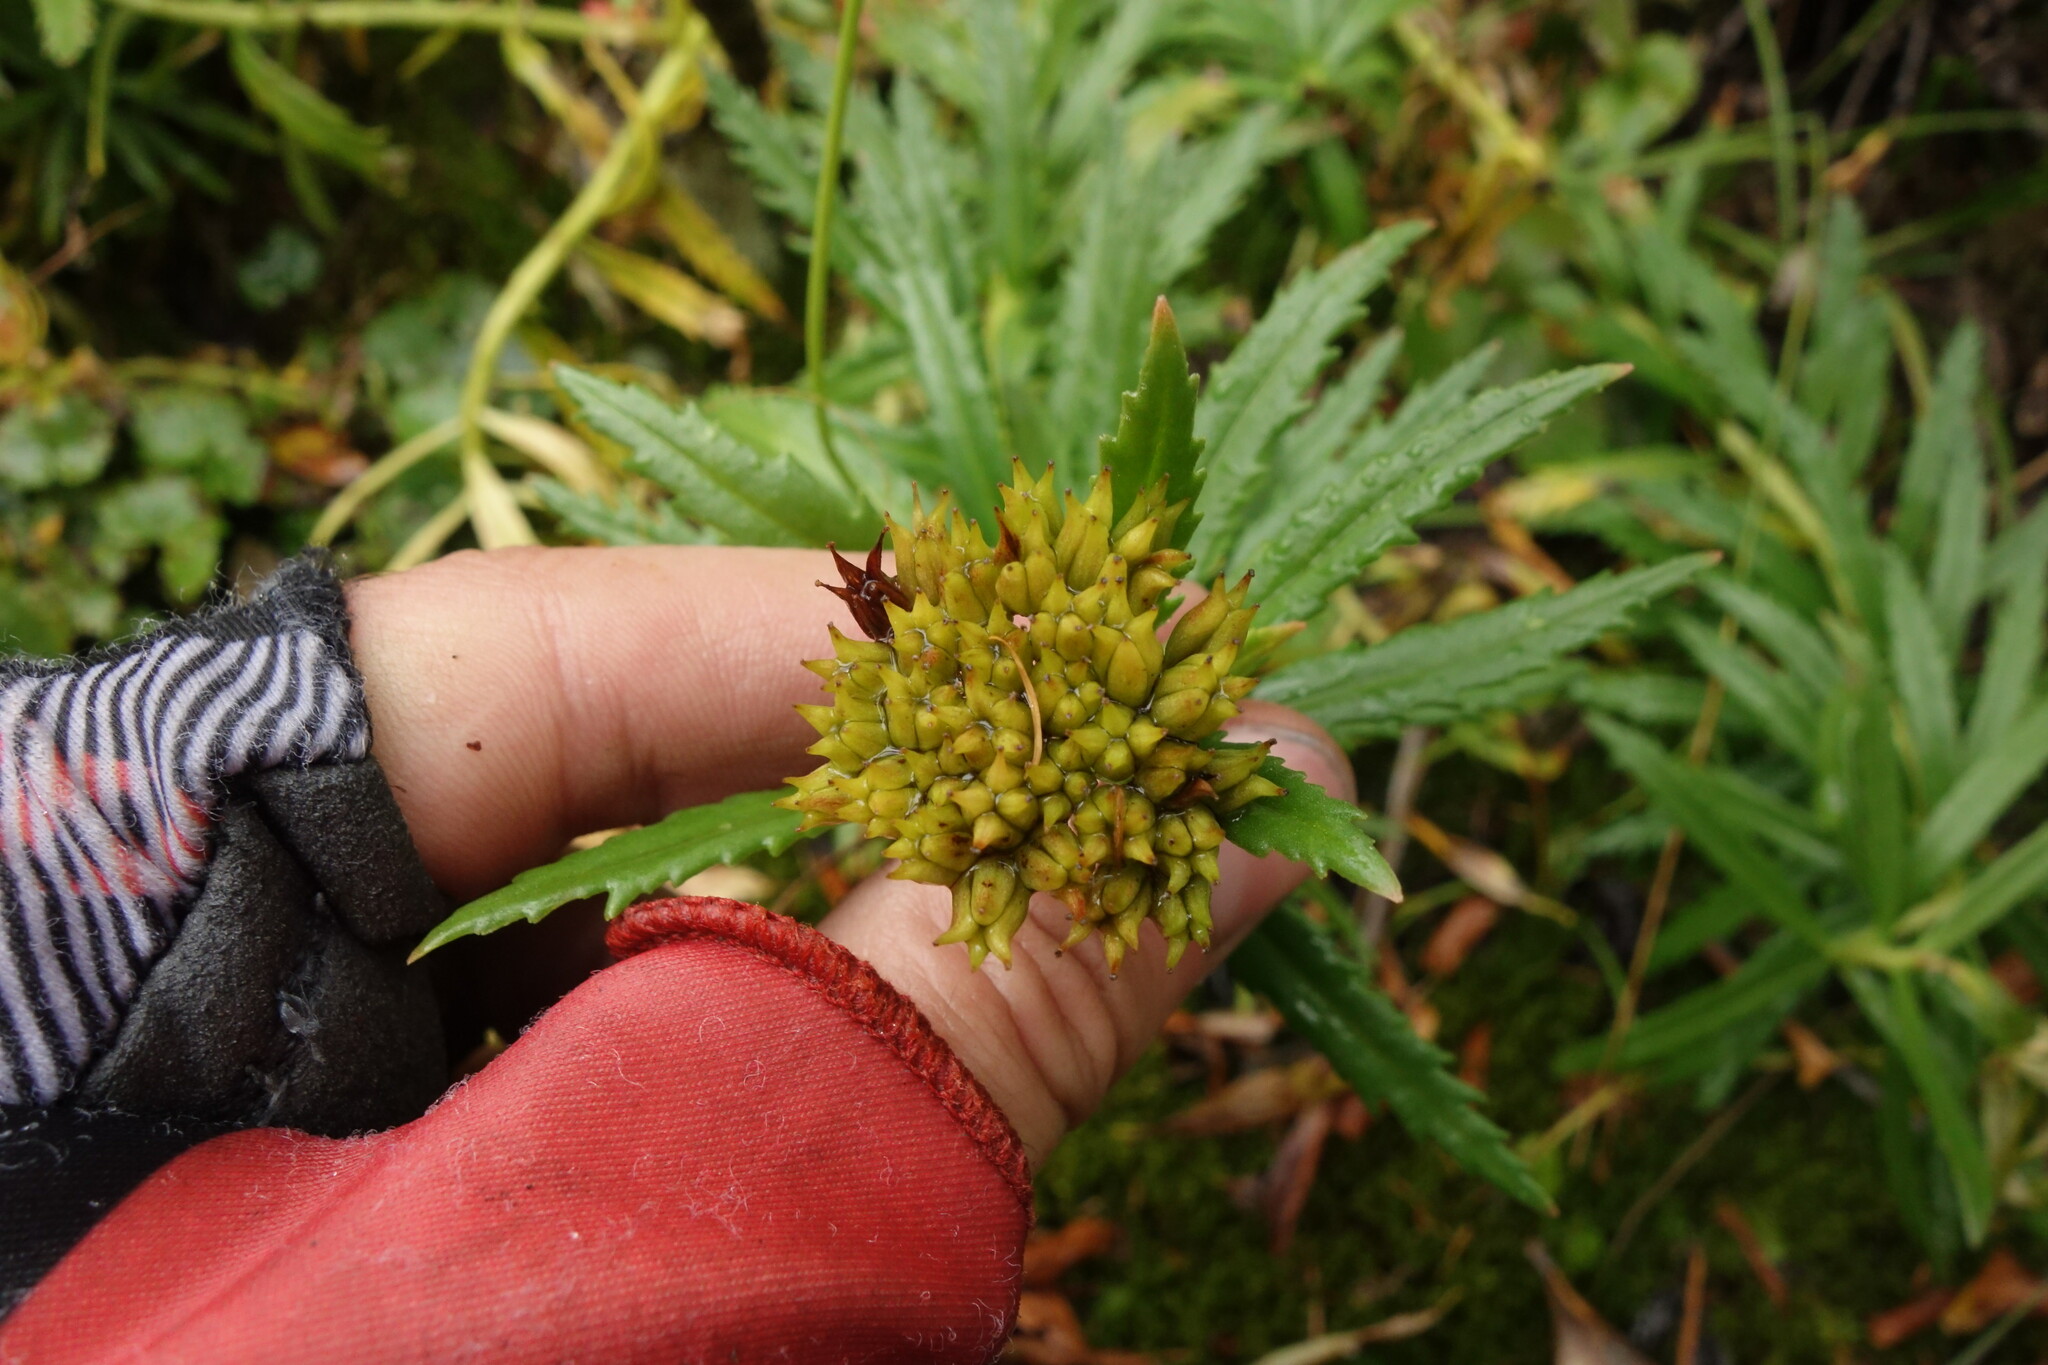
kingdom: Plantae
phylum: Tracheophyta
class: Magnoliopsida
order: Saxifragales
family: Crassulaceae
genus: Rhodiola
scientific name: Rhodiola stephani
